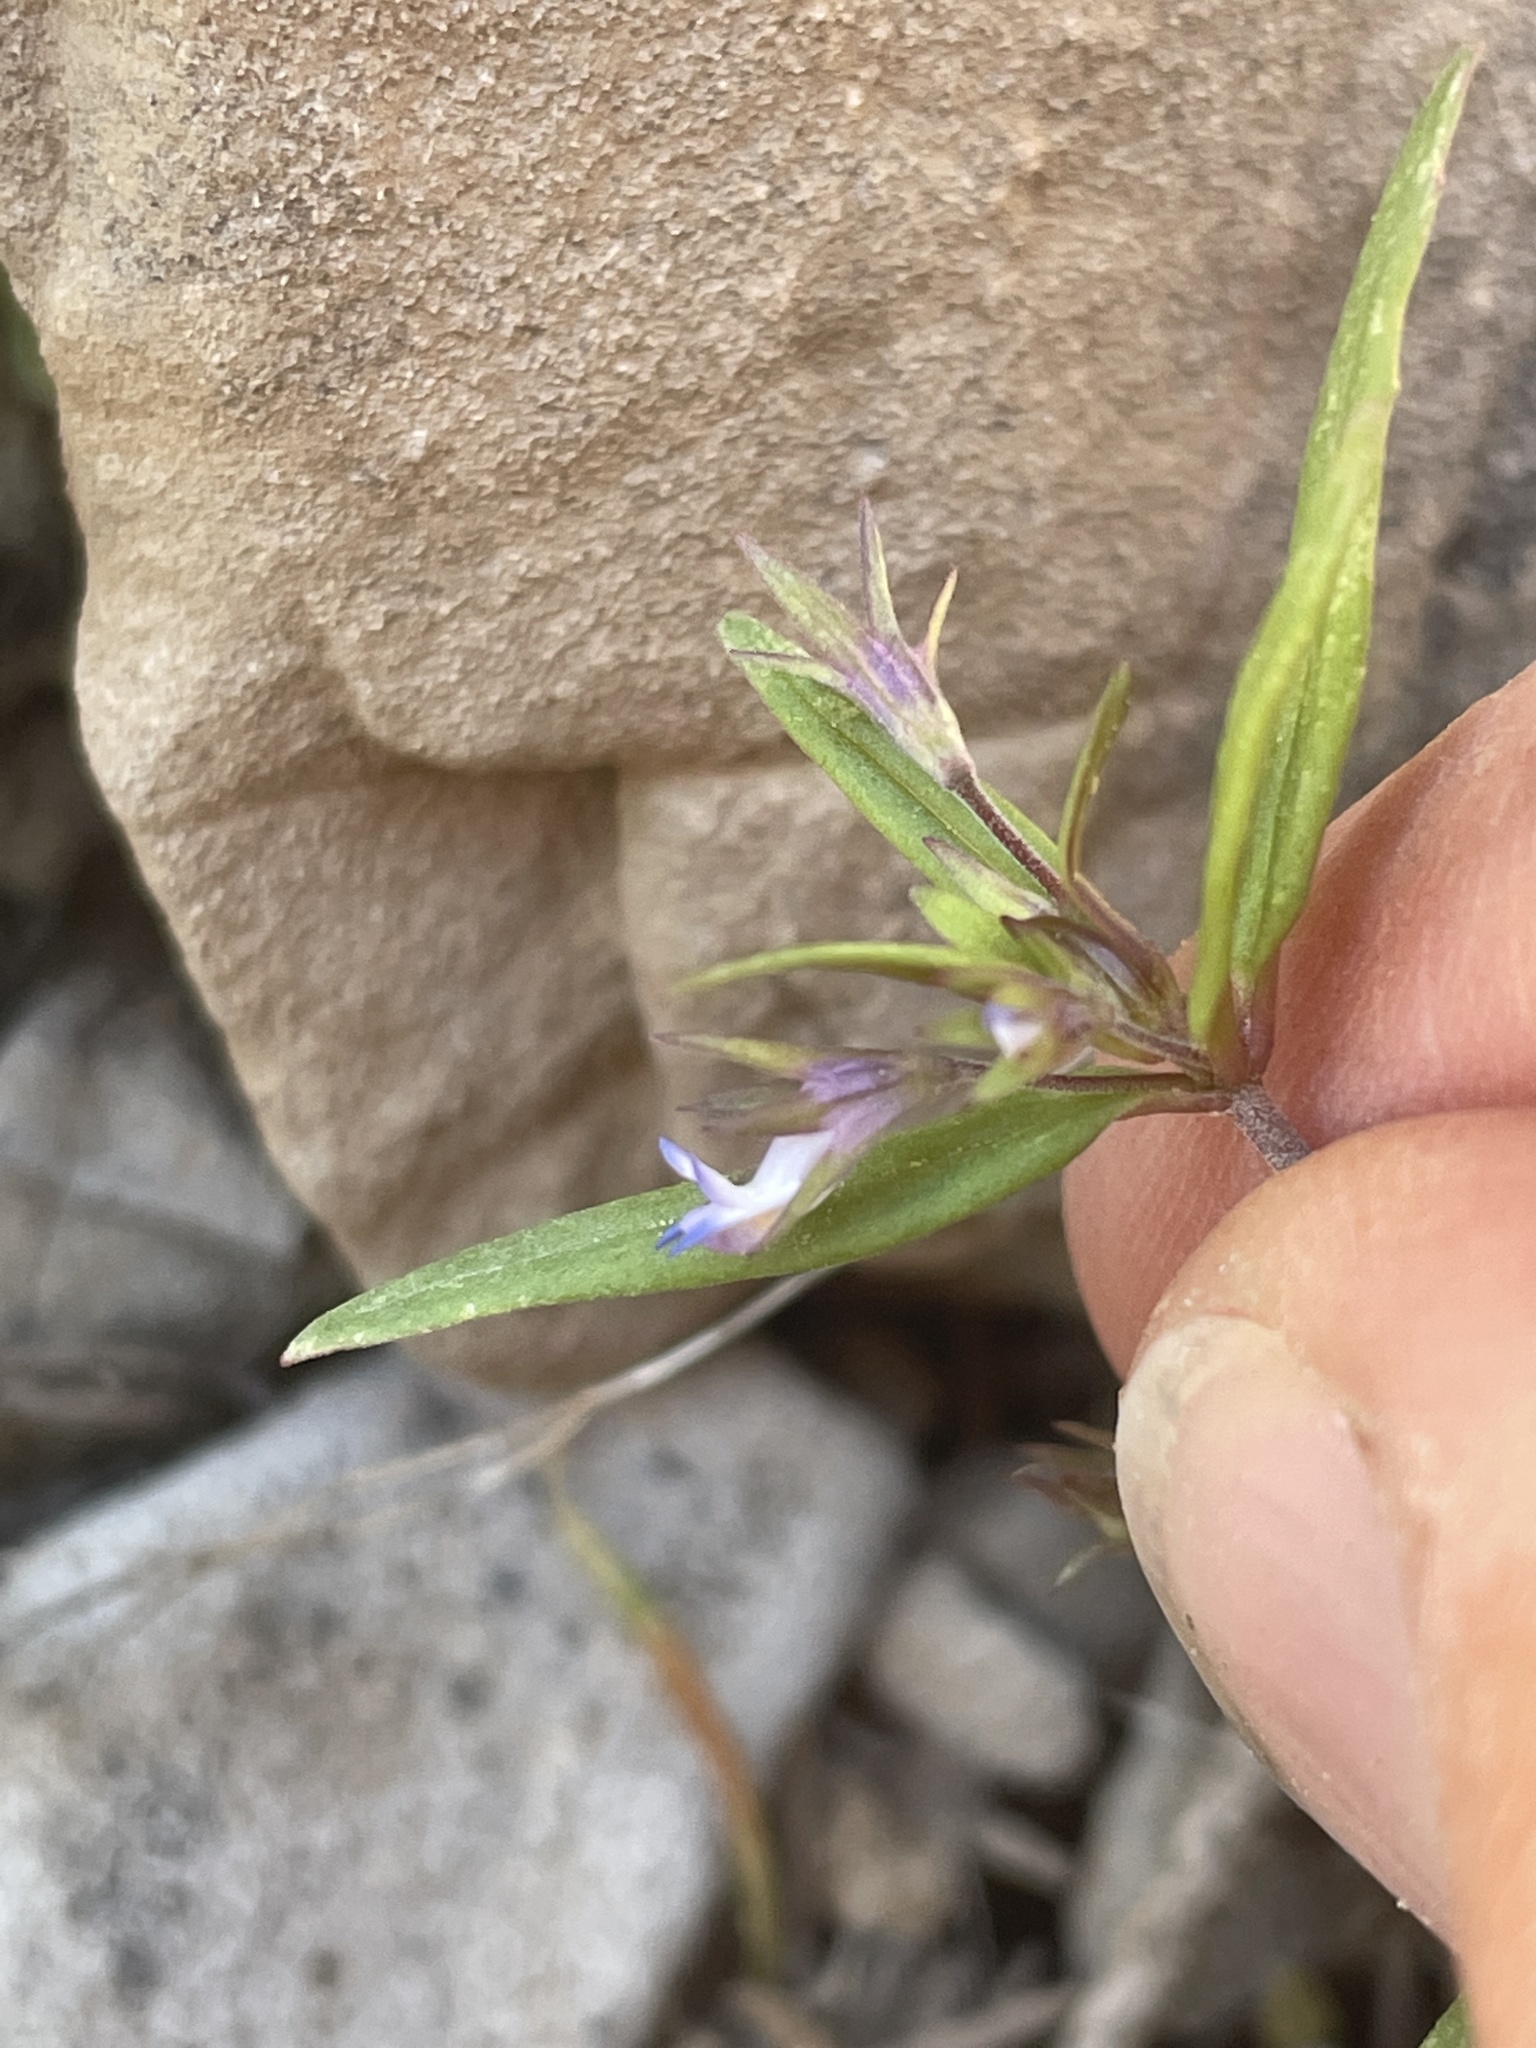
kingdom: Plantae
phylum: Tracheophyta
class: Magnoliopsida
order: Lamiales
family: Plantaginaceae
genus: Collinsia
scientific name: Collinsia parviflora
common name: Blue-lips
